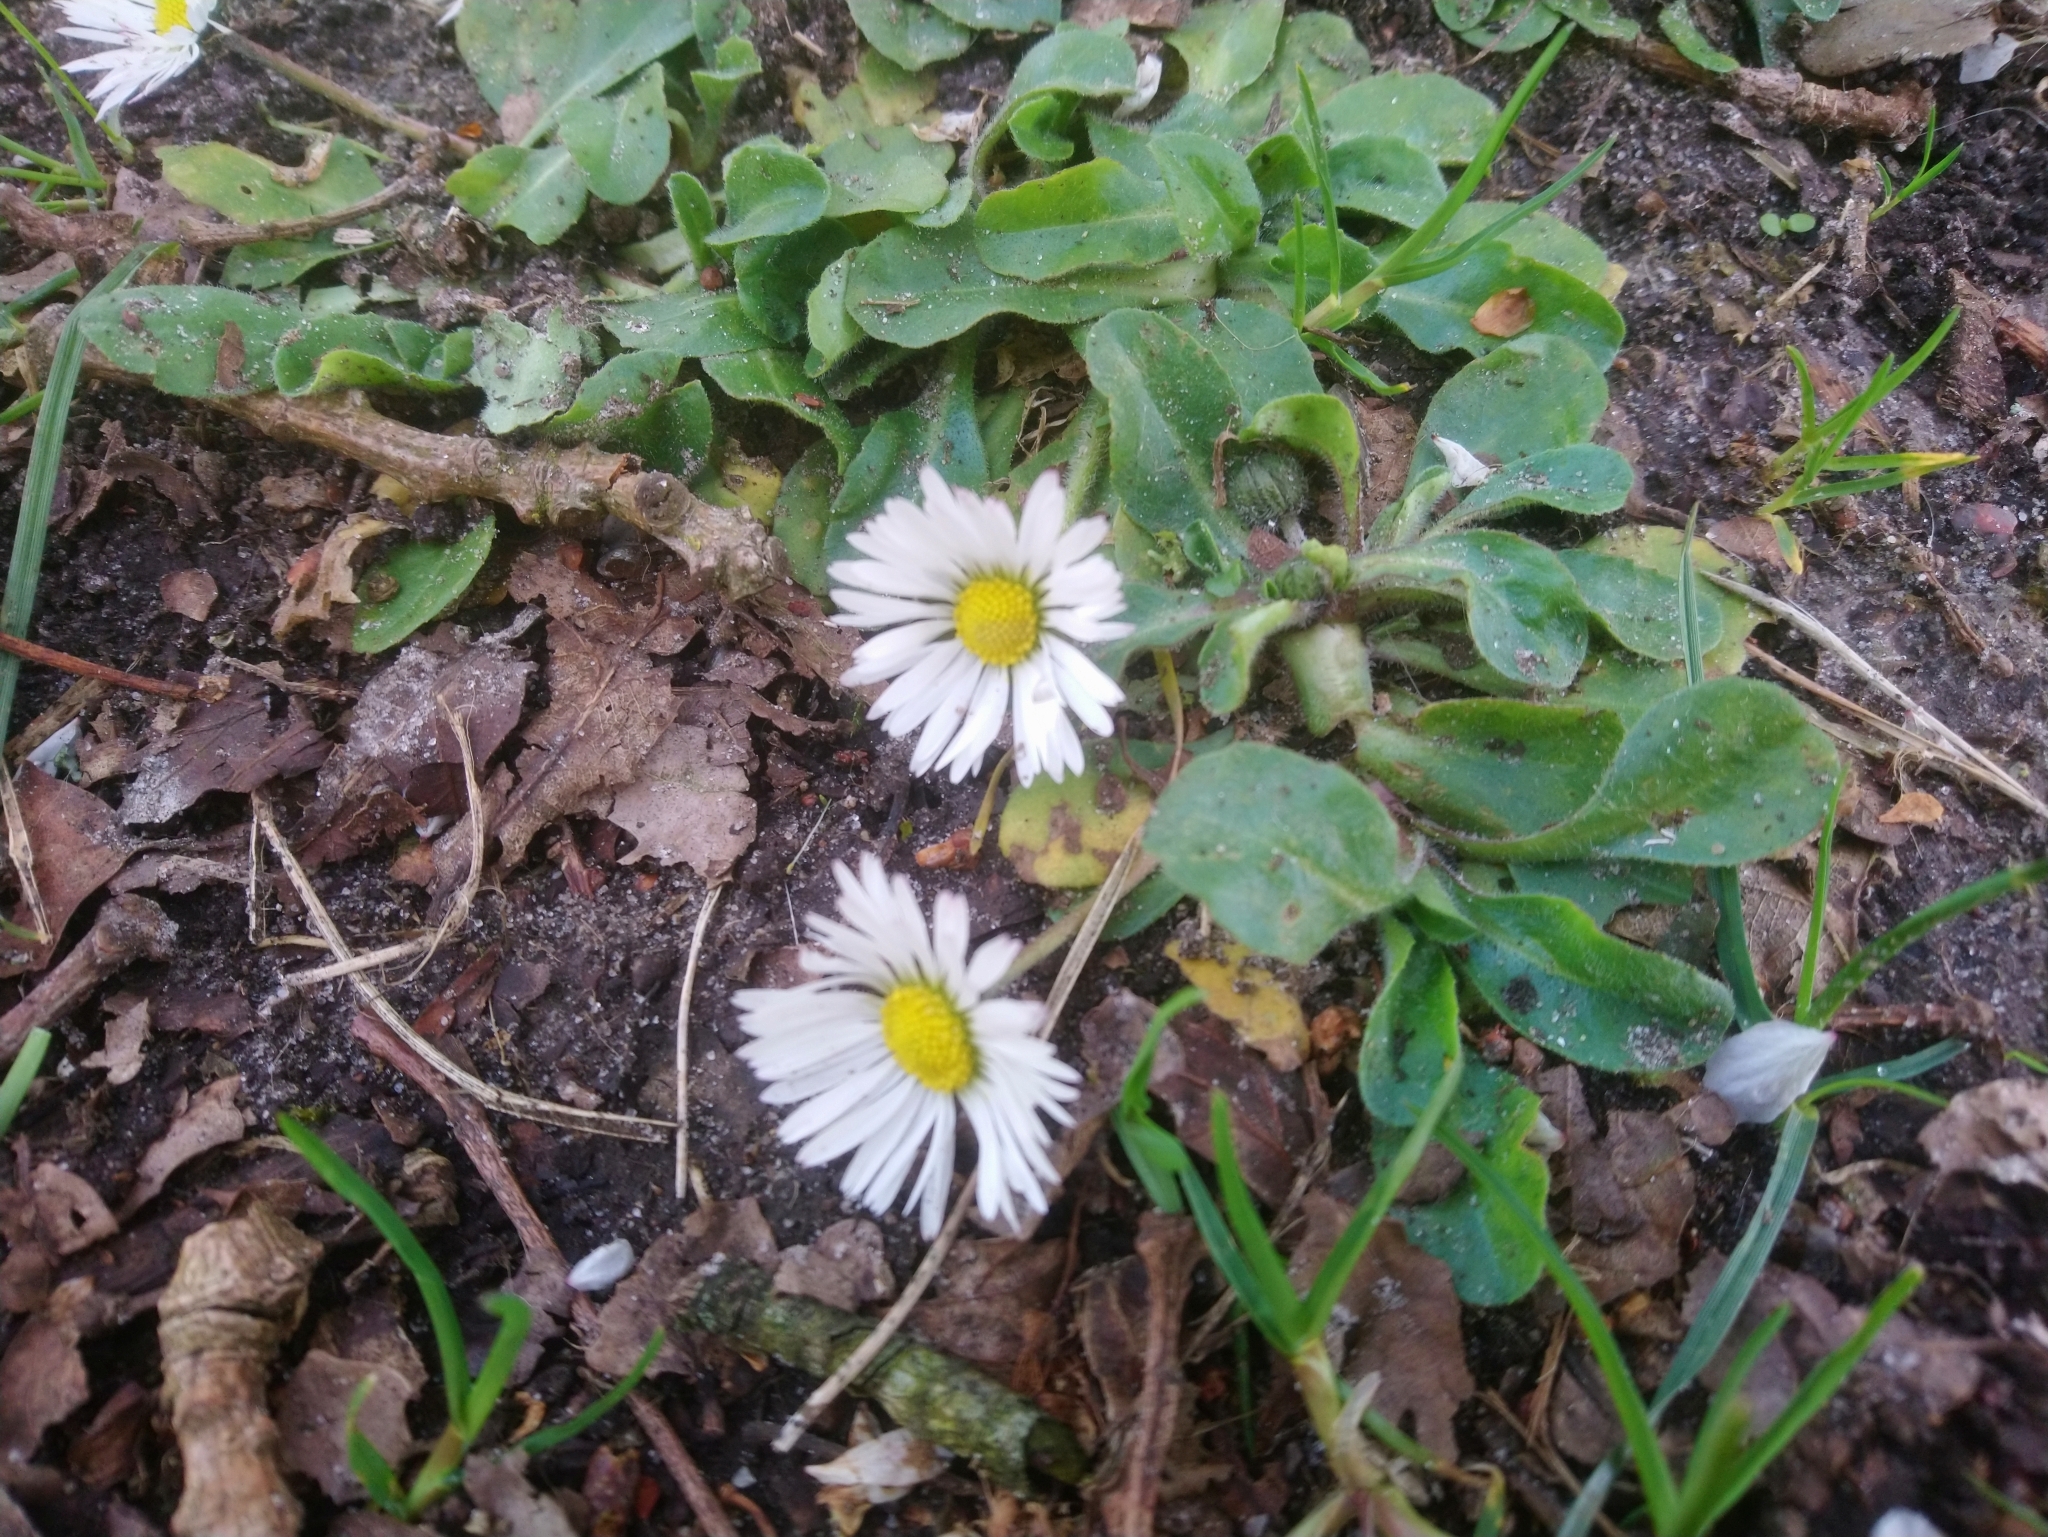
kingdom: Plantae
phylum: Tracheophyta
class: Magnoliopsida
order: Asterales
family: Asteraceae
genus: Bellis
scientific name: Bellis perennis
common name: Lawndaisy
